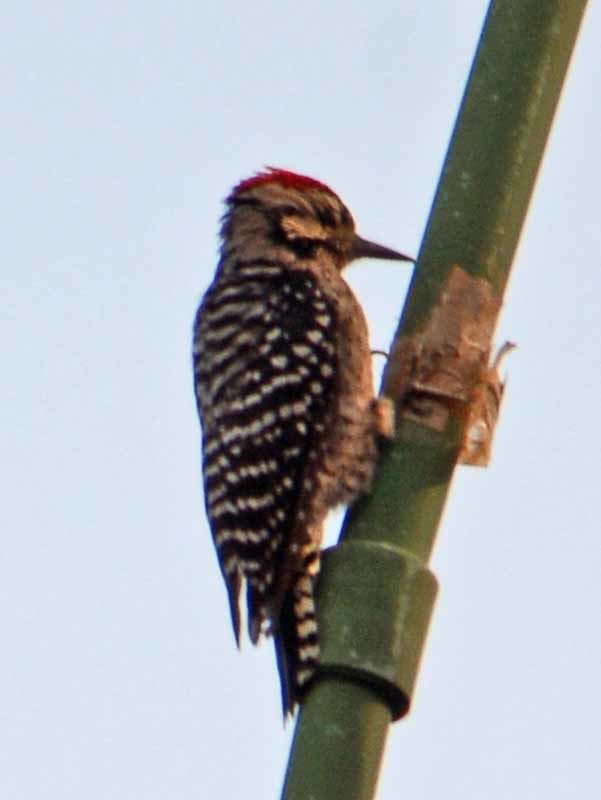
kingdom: Animalia
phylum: Chordata
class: Aves
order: Piciformes
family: Picidae
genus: Dryobates
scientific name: Dryobates scalaris
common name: Ladder-backed woodpecker
